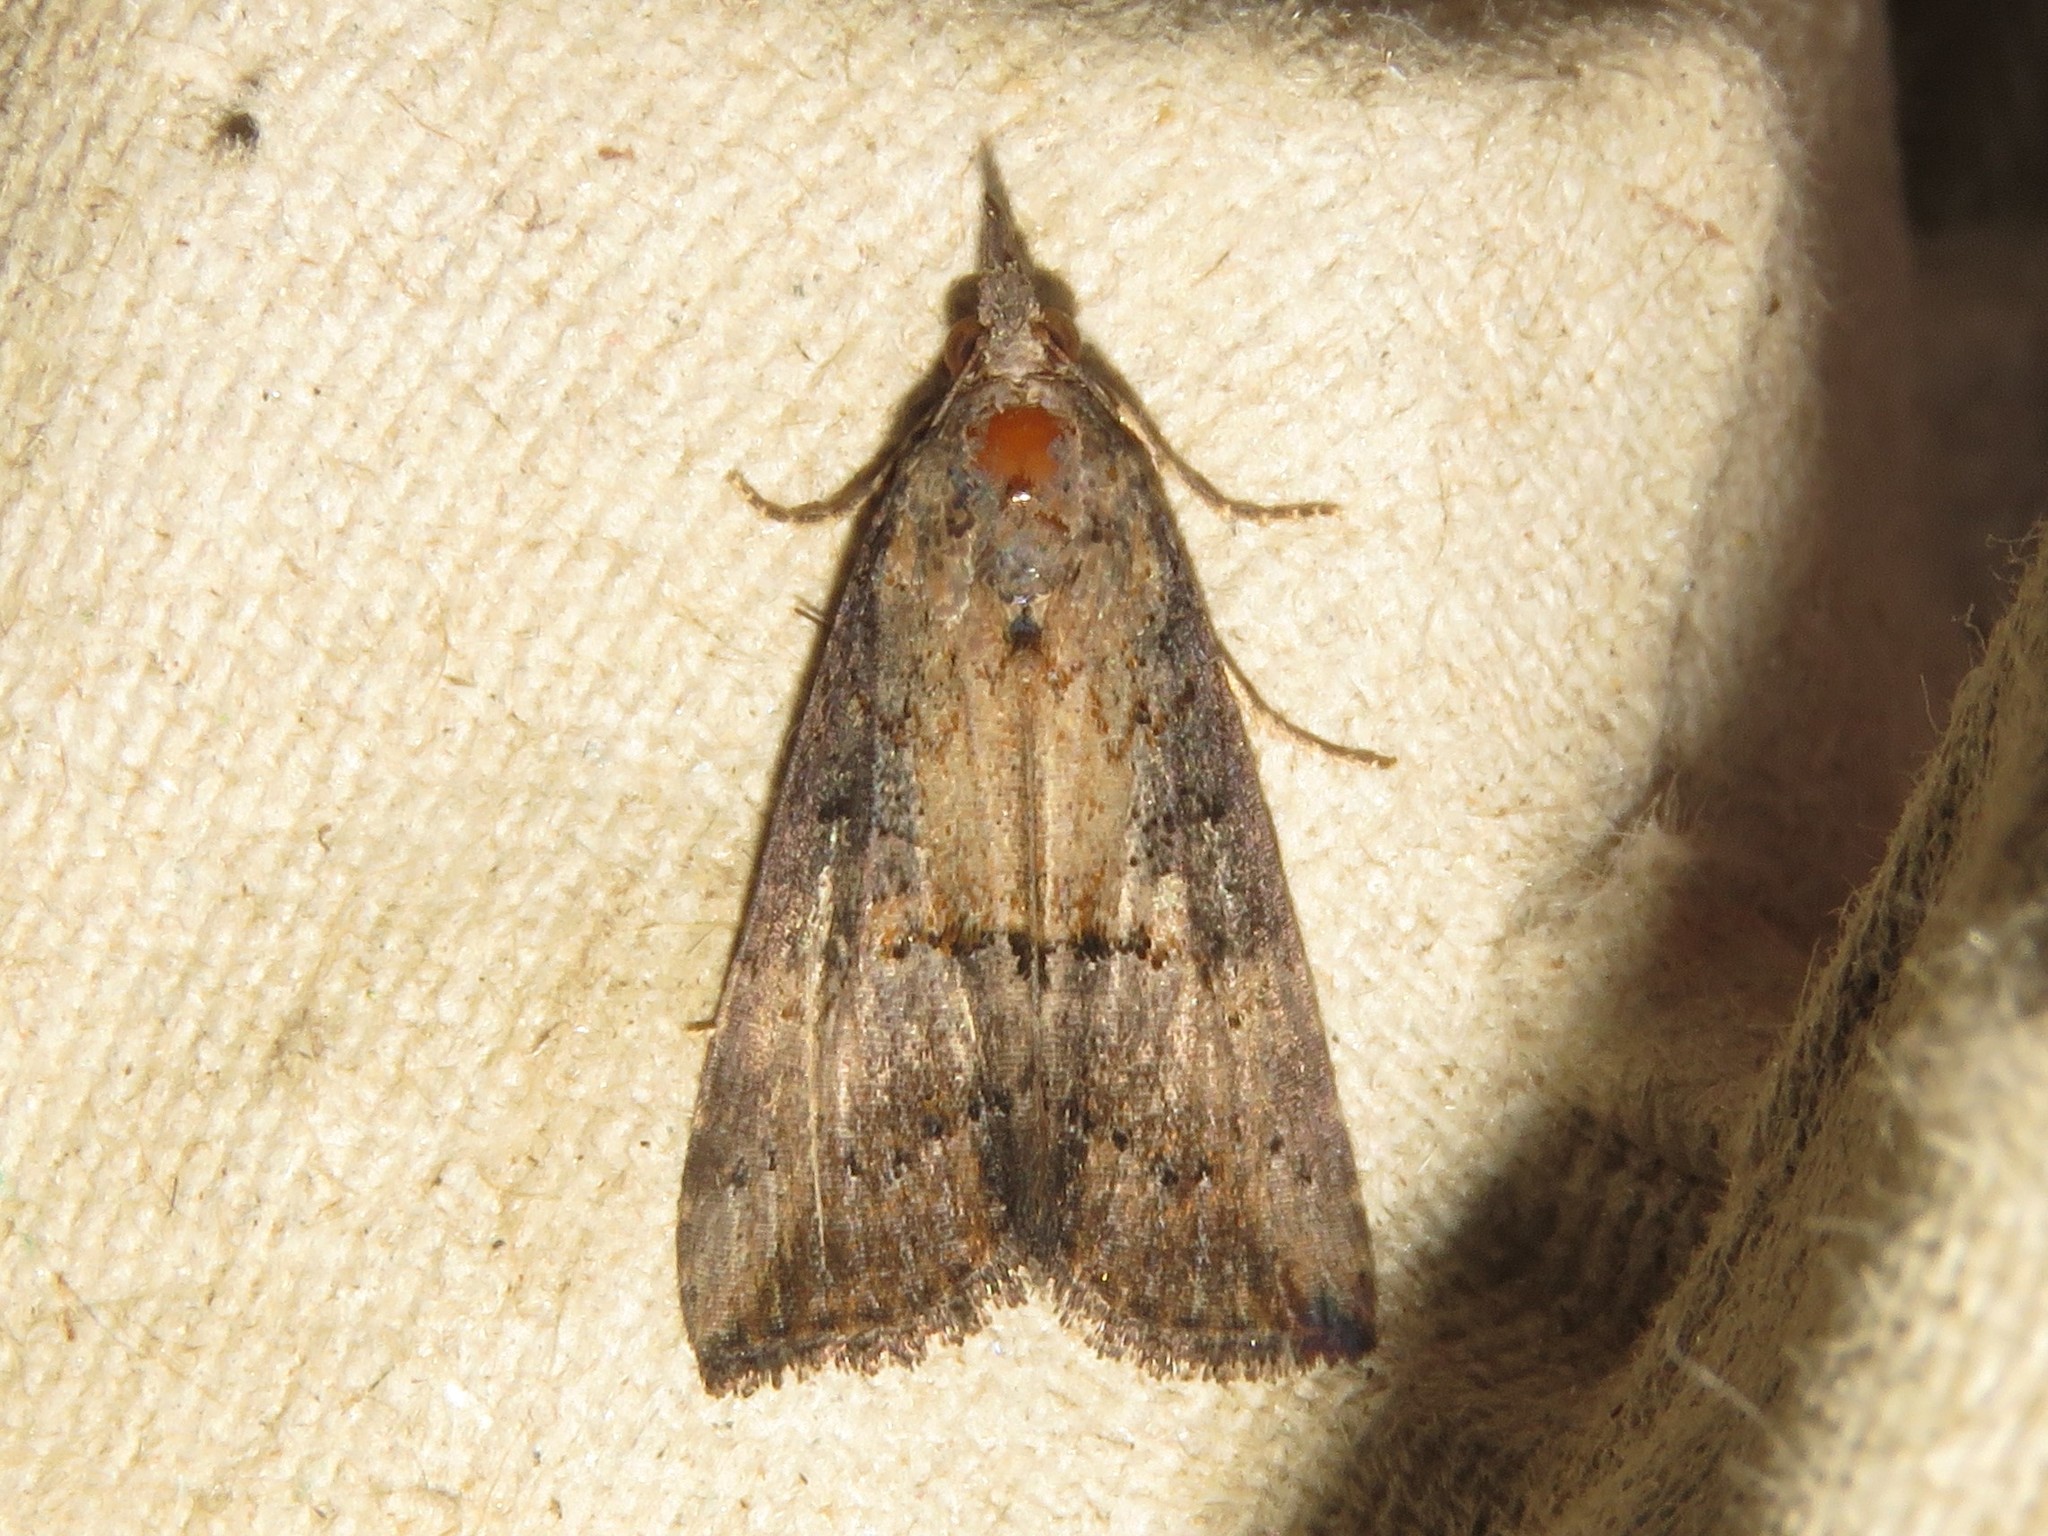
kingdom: Animalia
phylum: Arthropoda
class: Insecta
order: Lepidoptera
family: Erebidae
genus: Hypena
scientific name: Hypena scabra
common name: Green cloverworm
